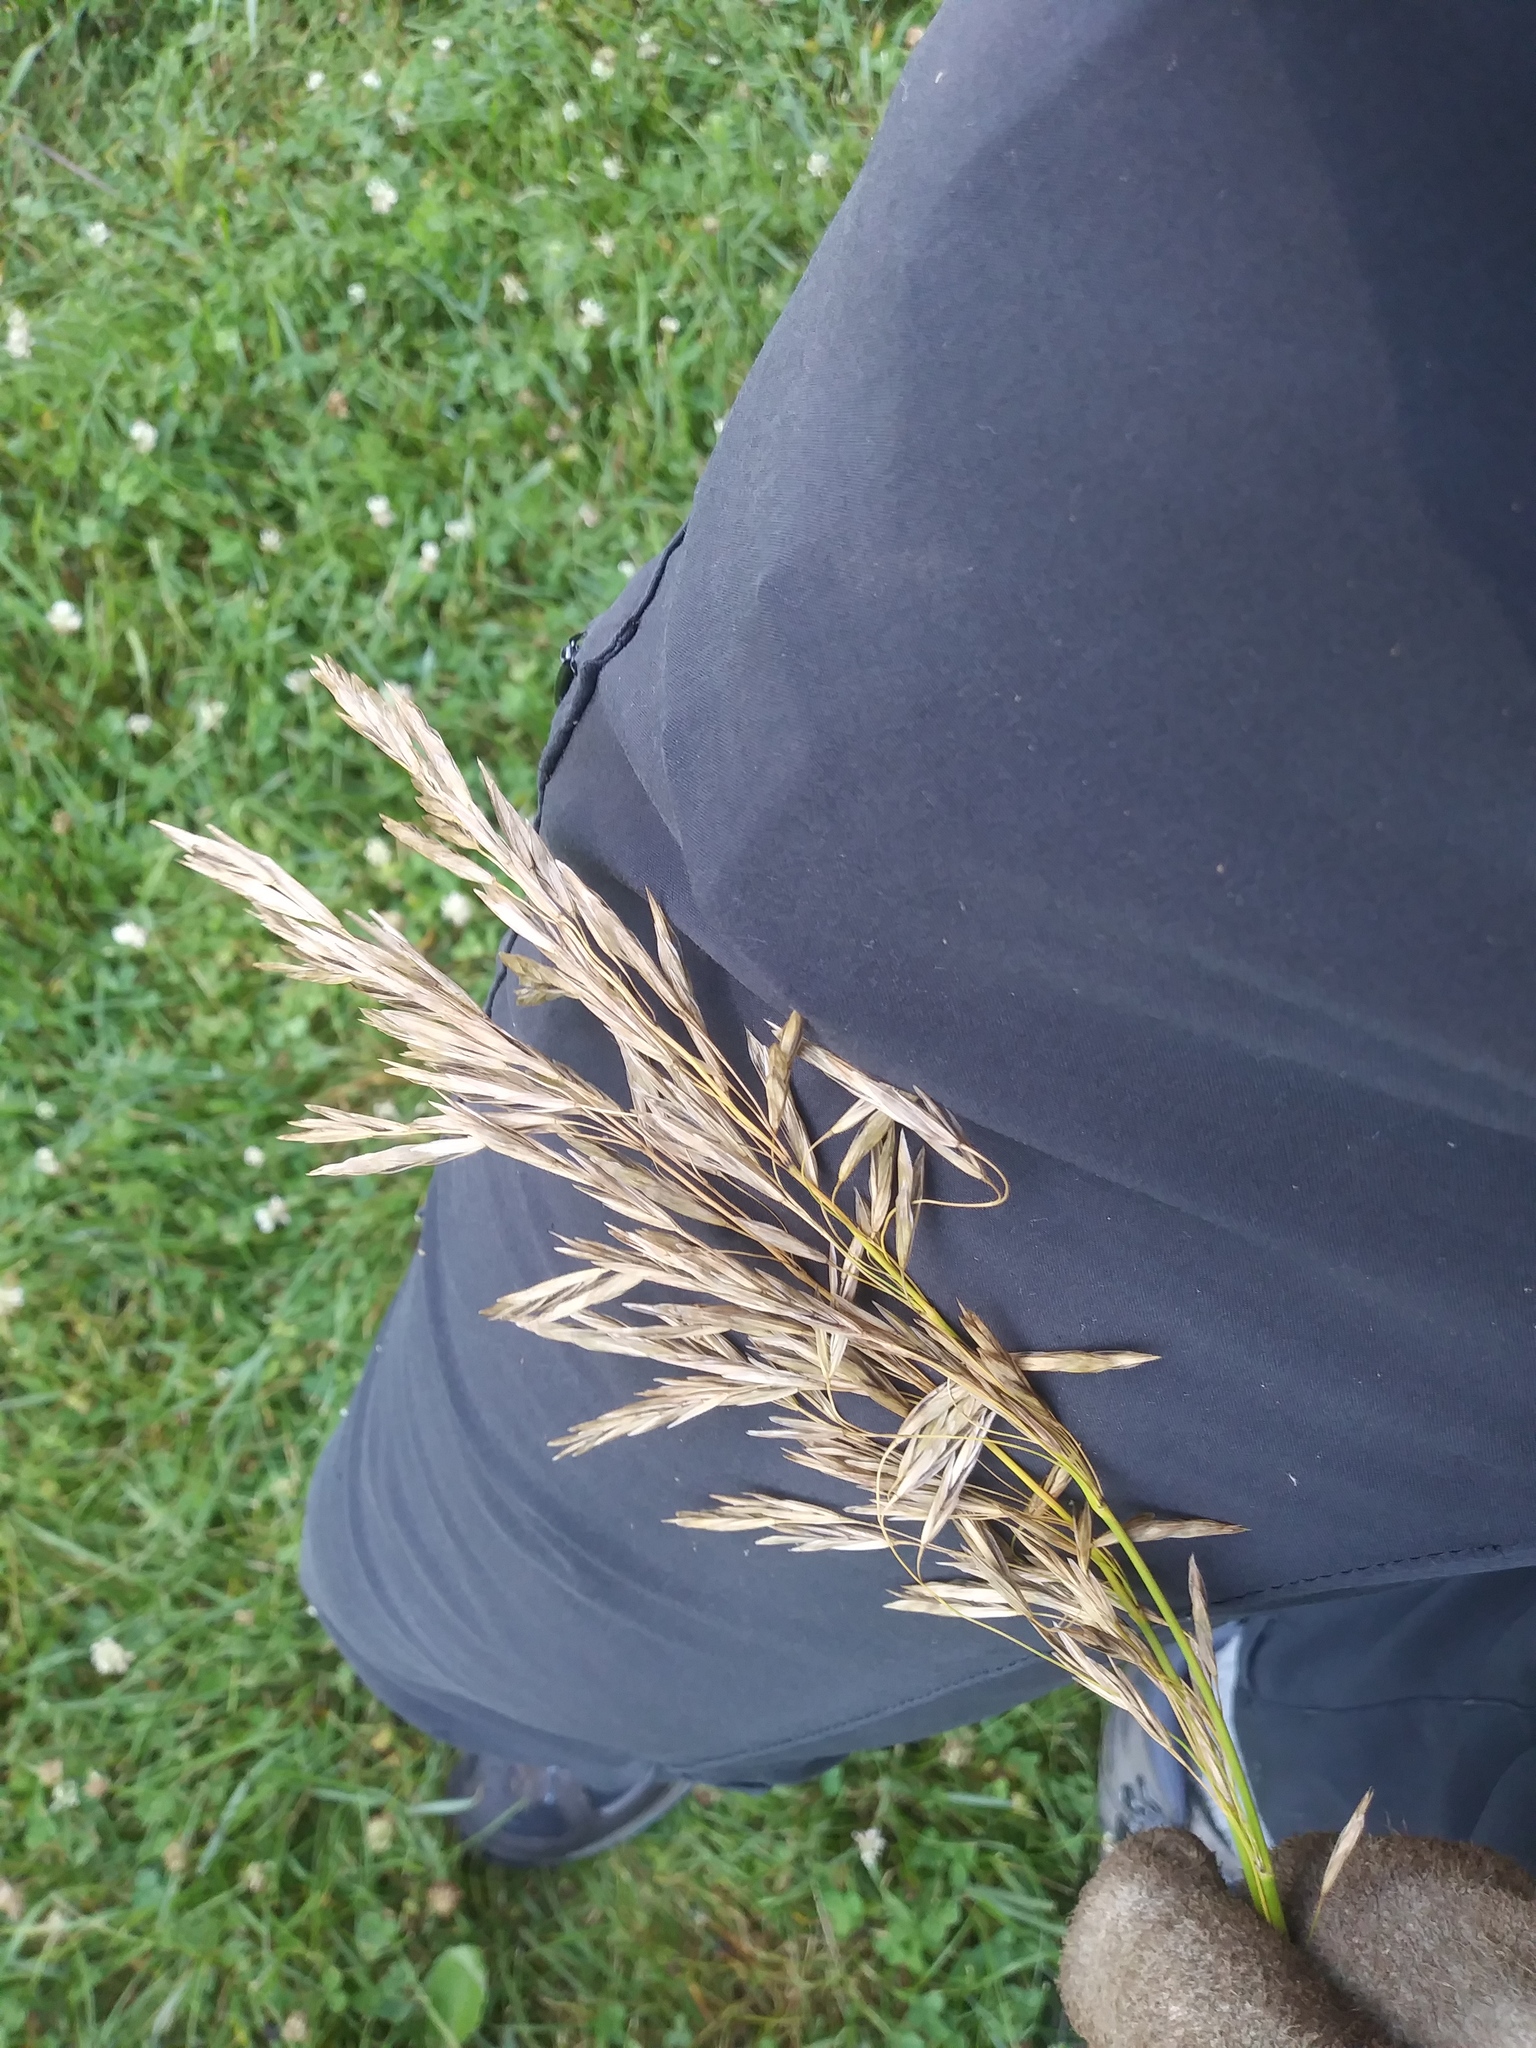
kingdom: Plantae
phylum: Tracheophyta
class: Liliopsida
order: Poales
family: Poaceae
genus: Bromus
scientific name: Bromus inermis
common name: Smooth brome
